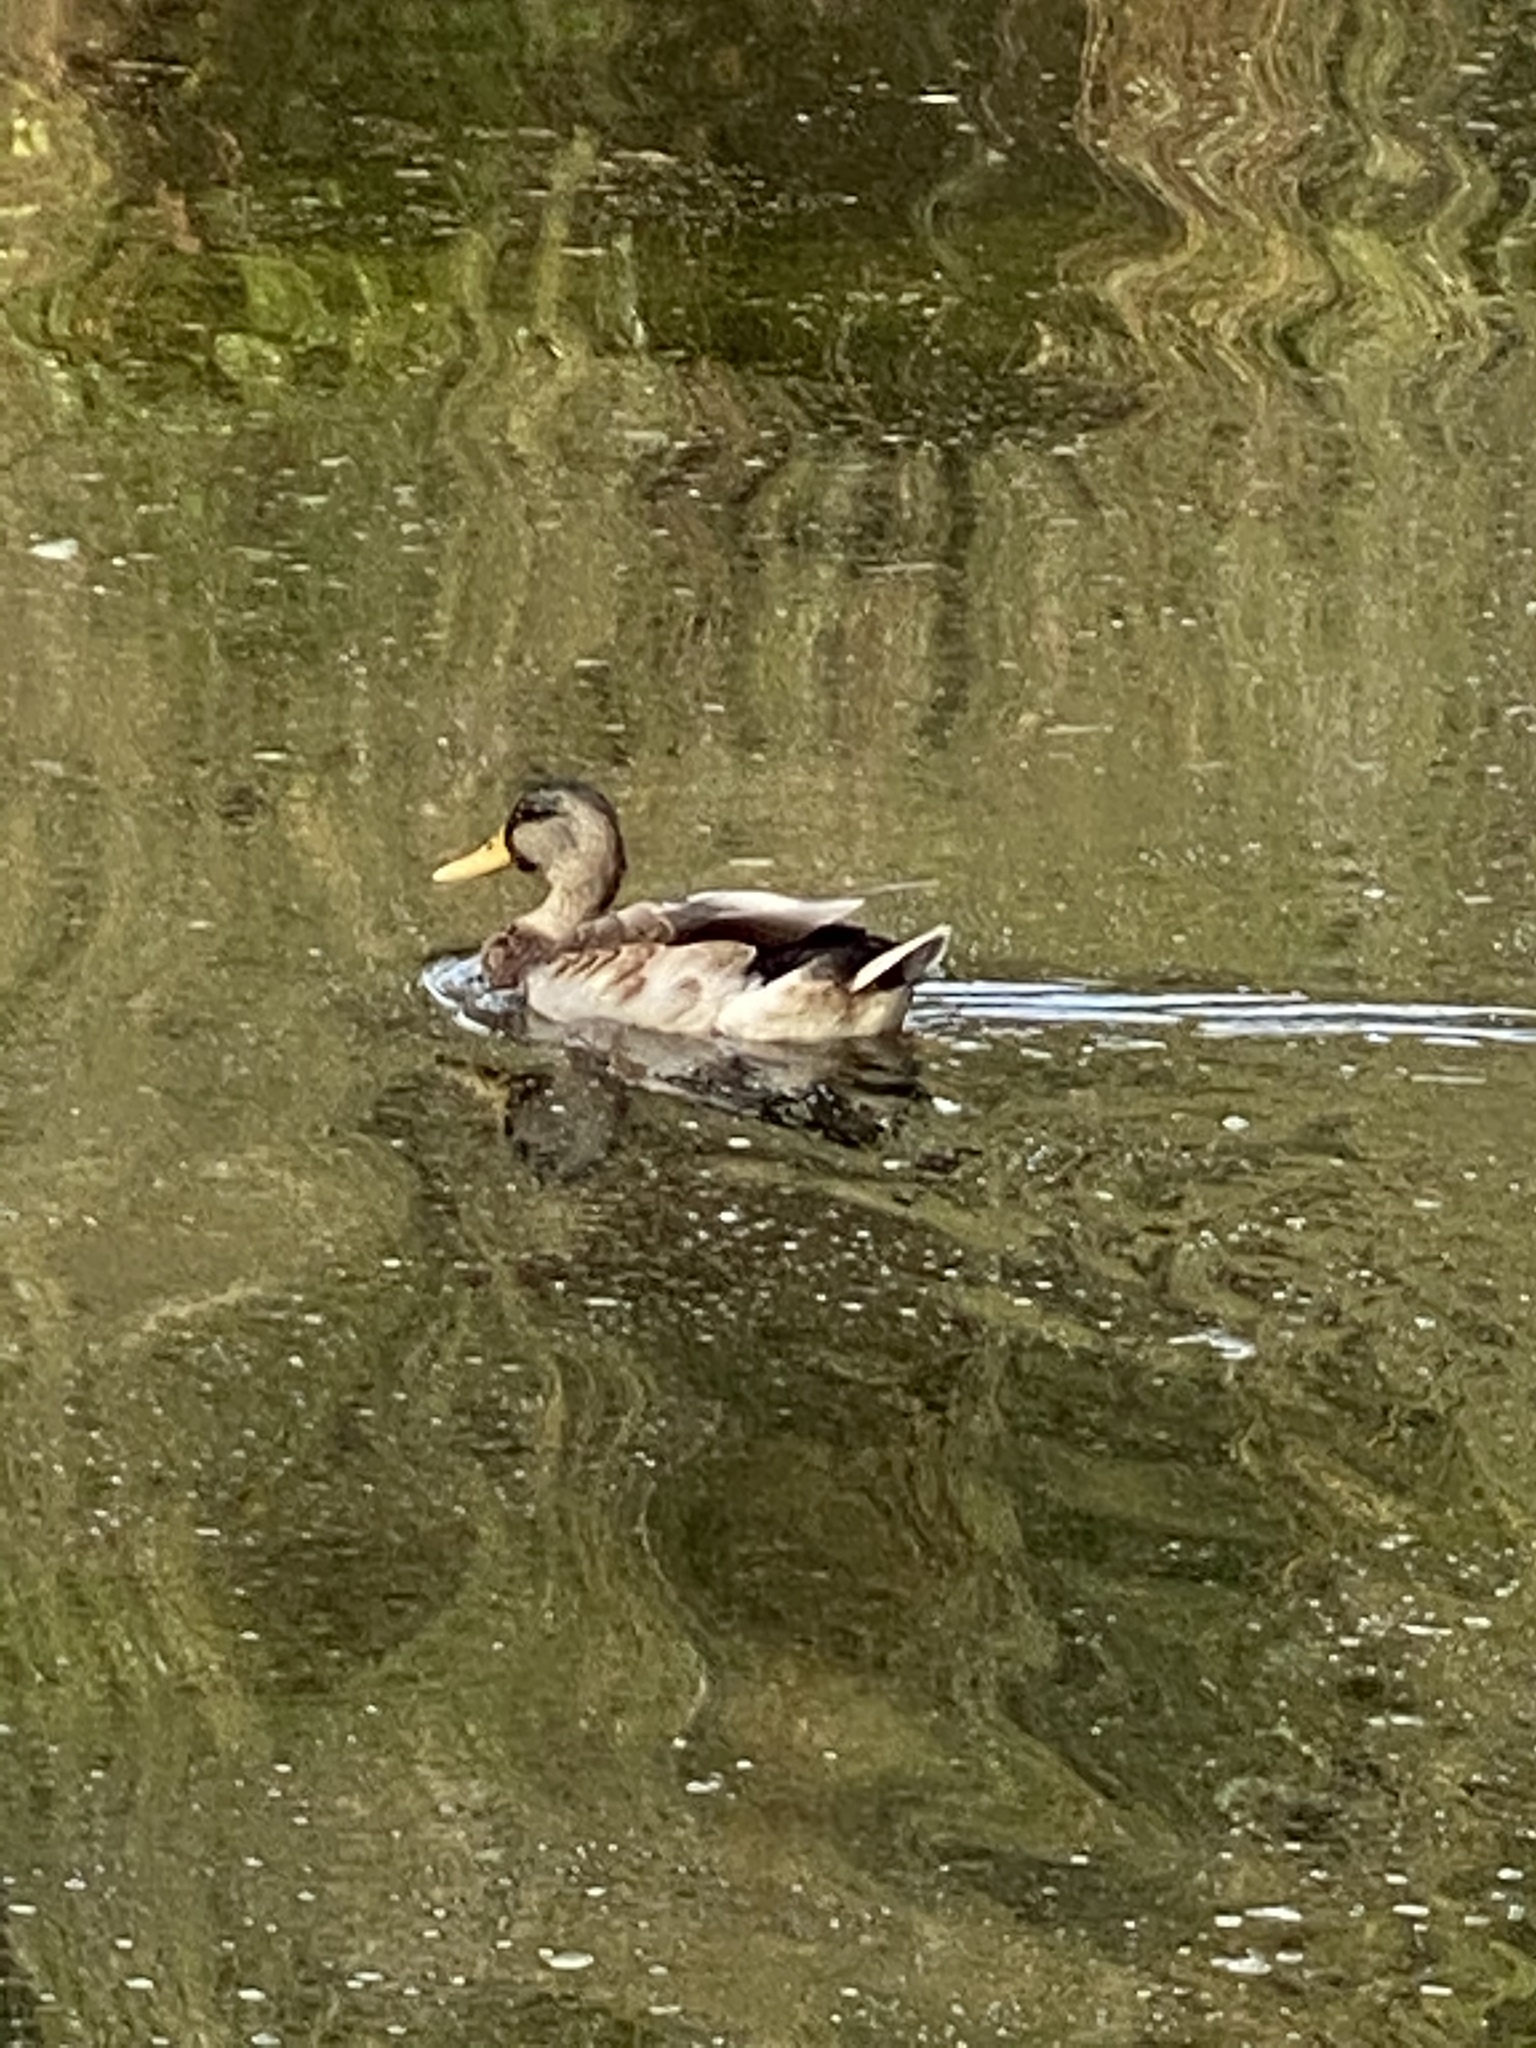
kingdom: Animalia
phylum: Chordata
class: Aves
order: Anseriformes
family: Anatidae
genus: Anas
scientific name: Anas platyrhynchos
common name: Mallard
